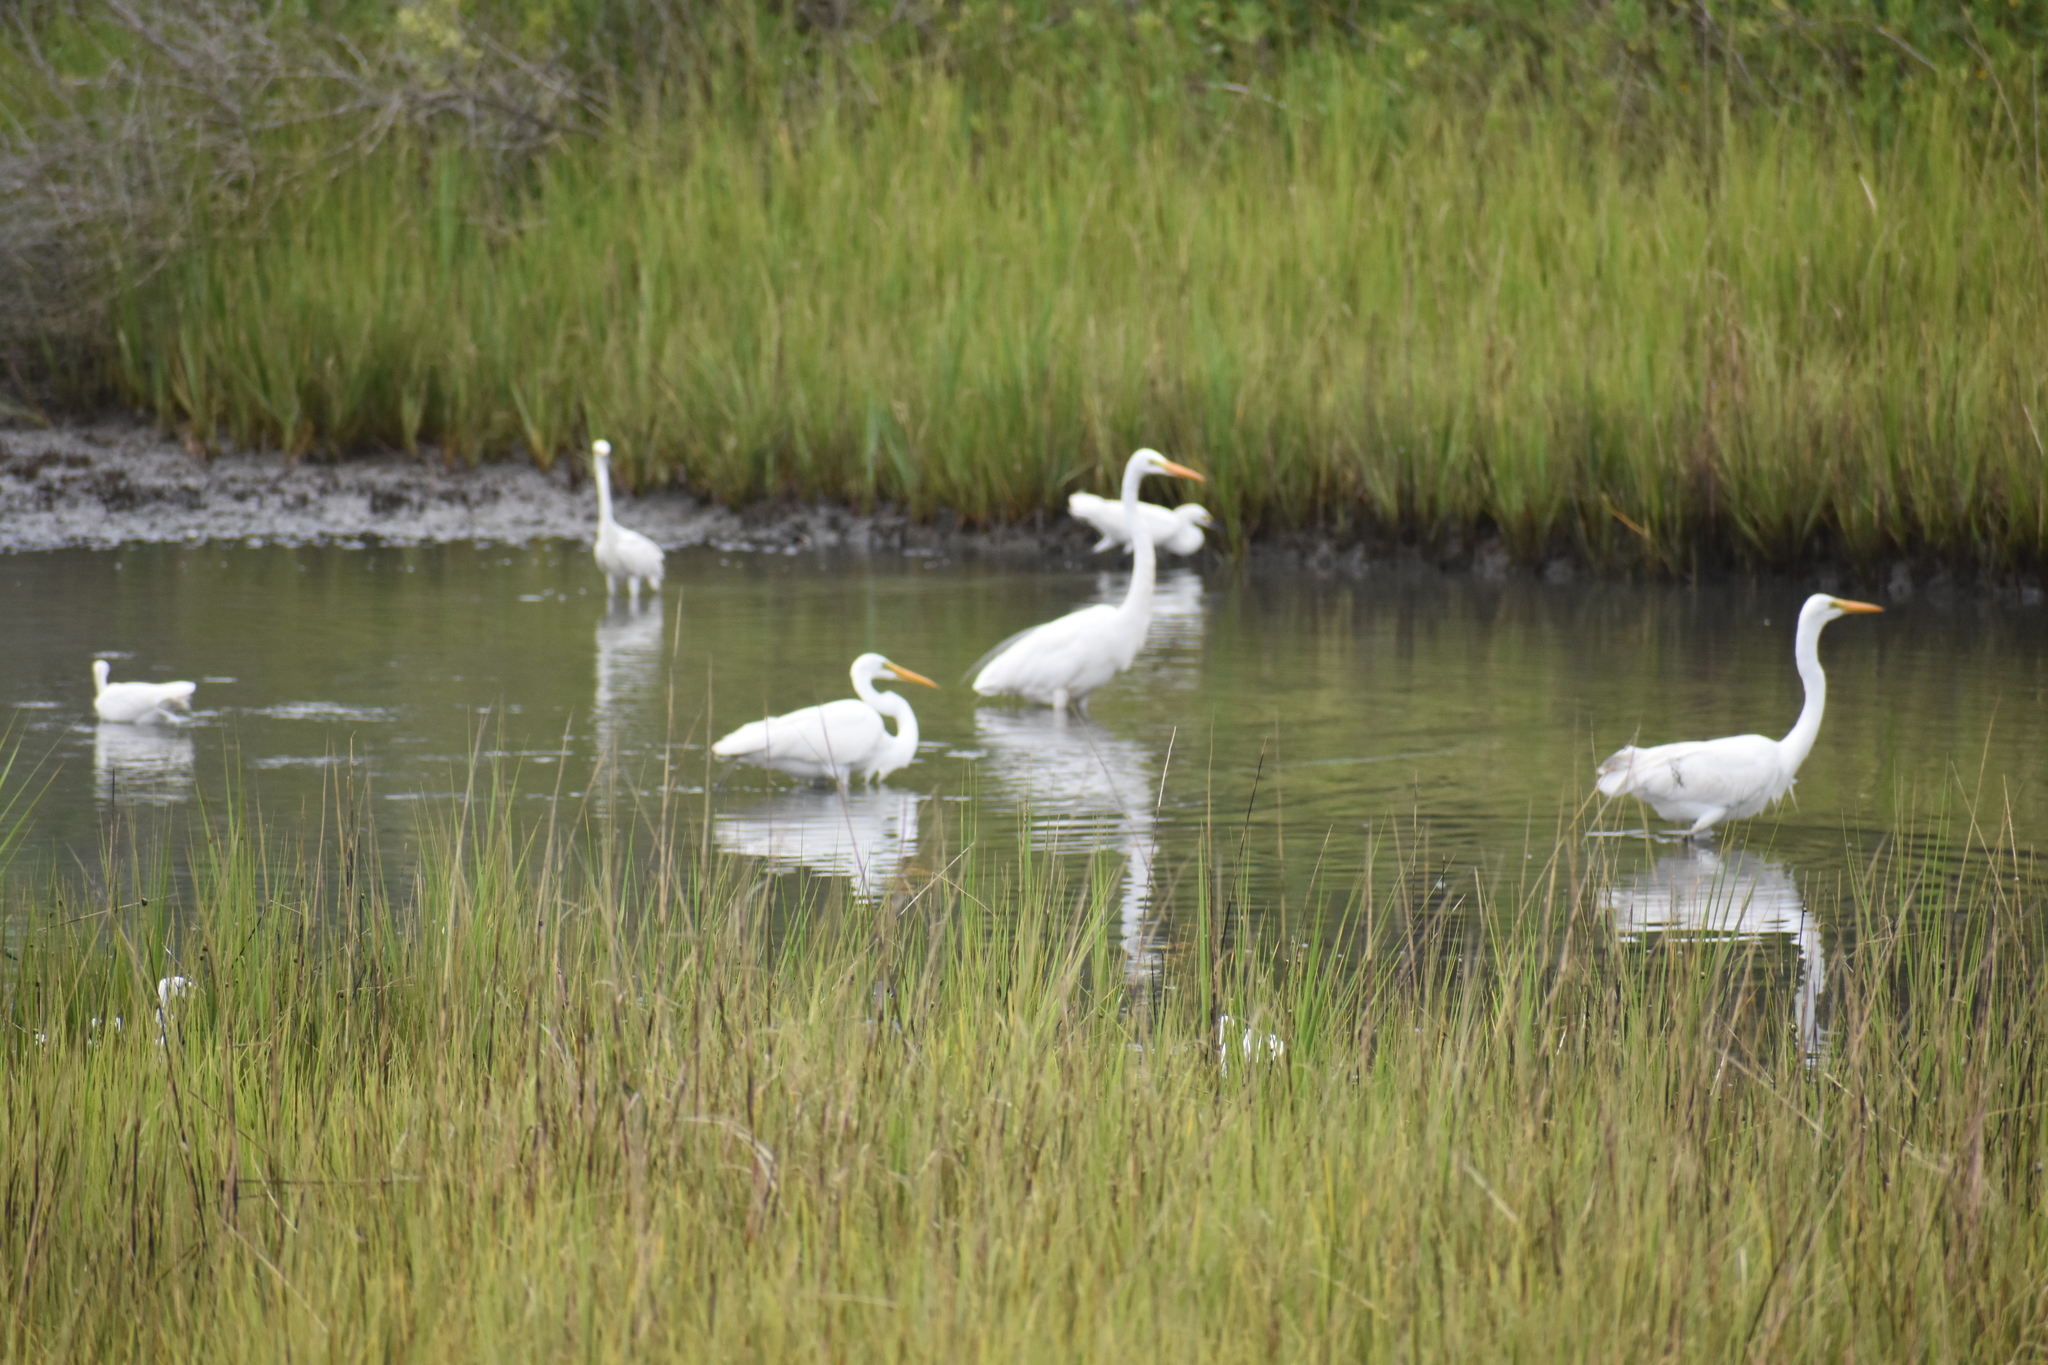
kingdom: Animalia
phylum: Chordata
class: Aves
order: Pelecaniformes
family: Ardeidae
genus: Ardea
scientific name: Ardea alba
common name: Great egret
